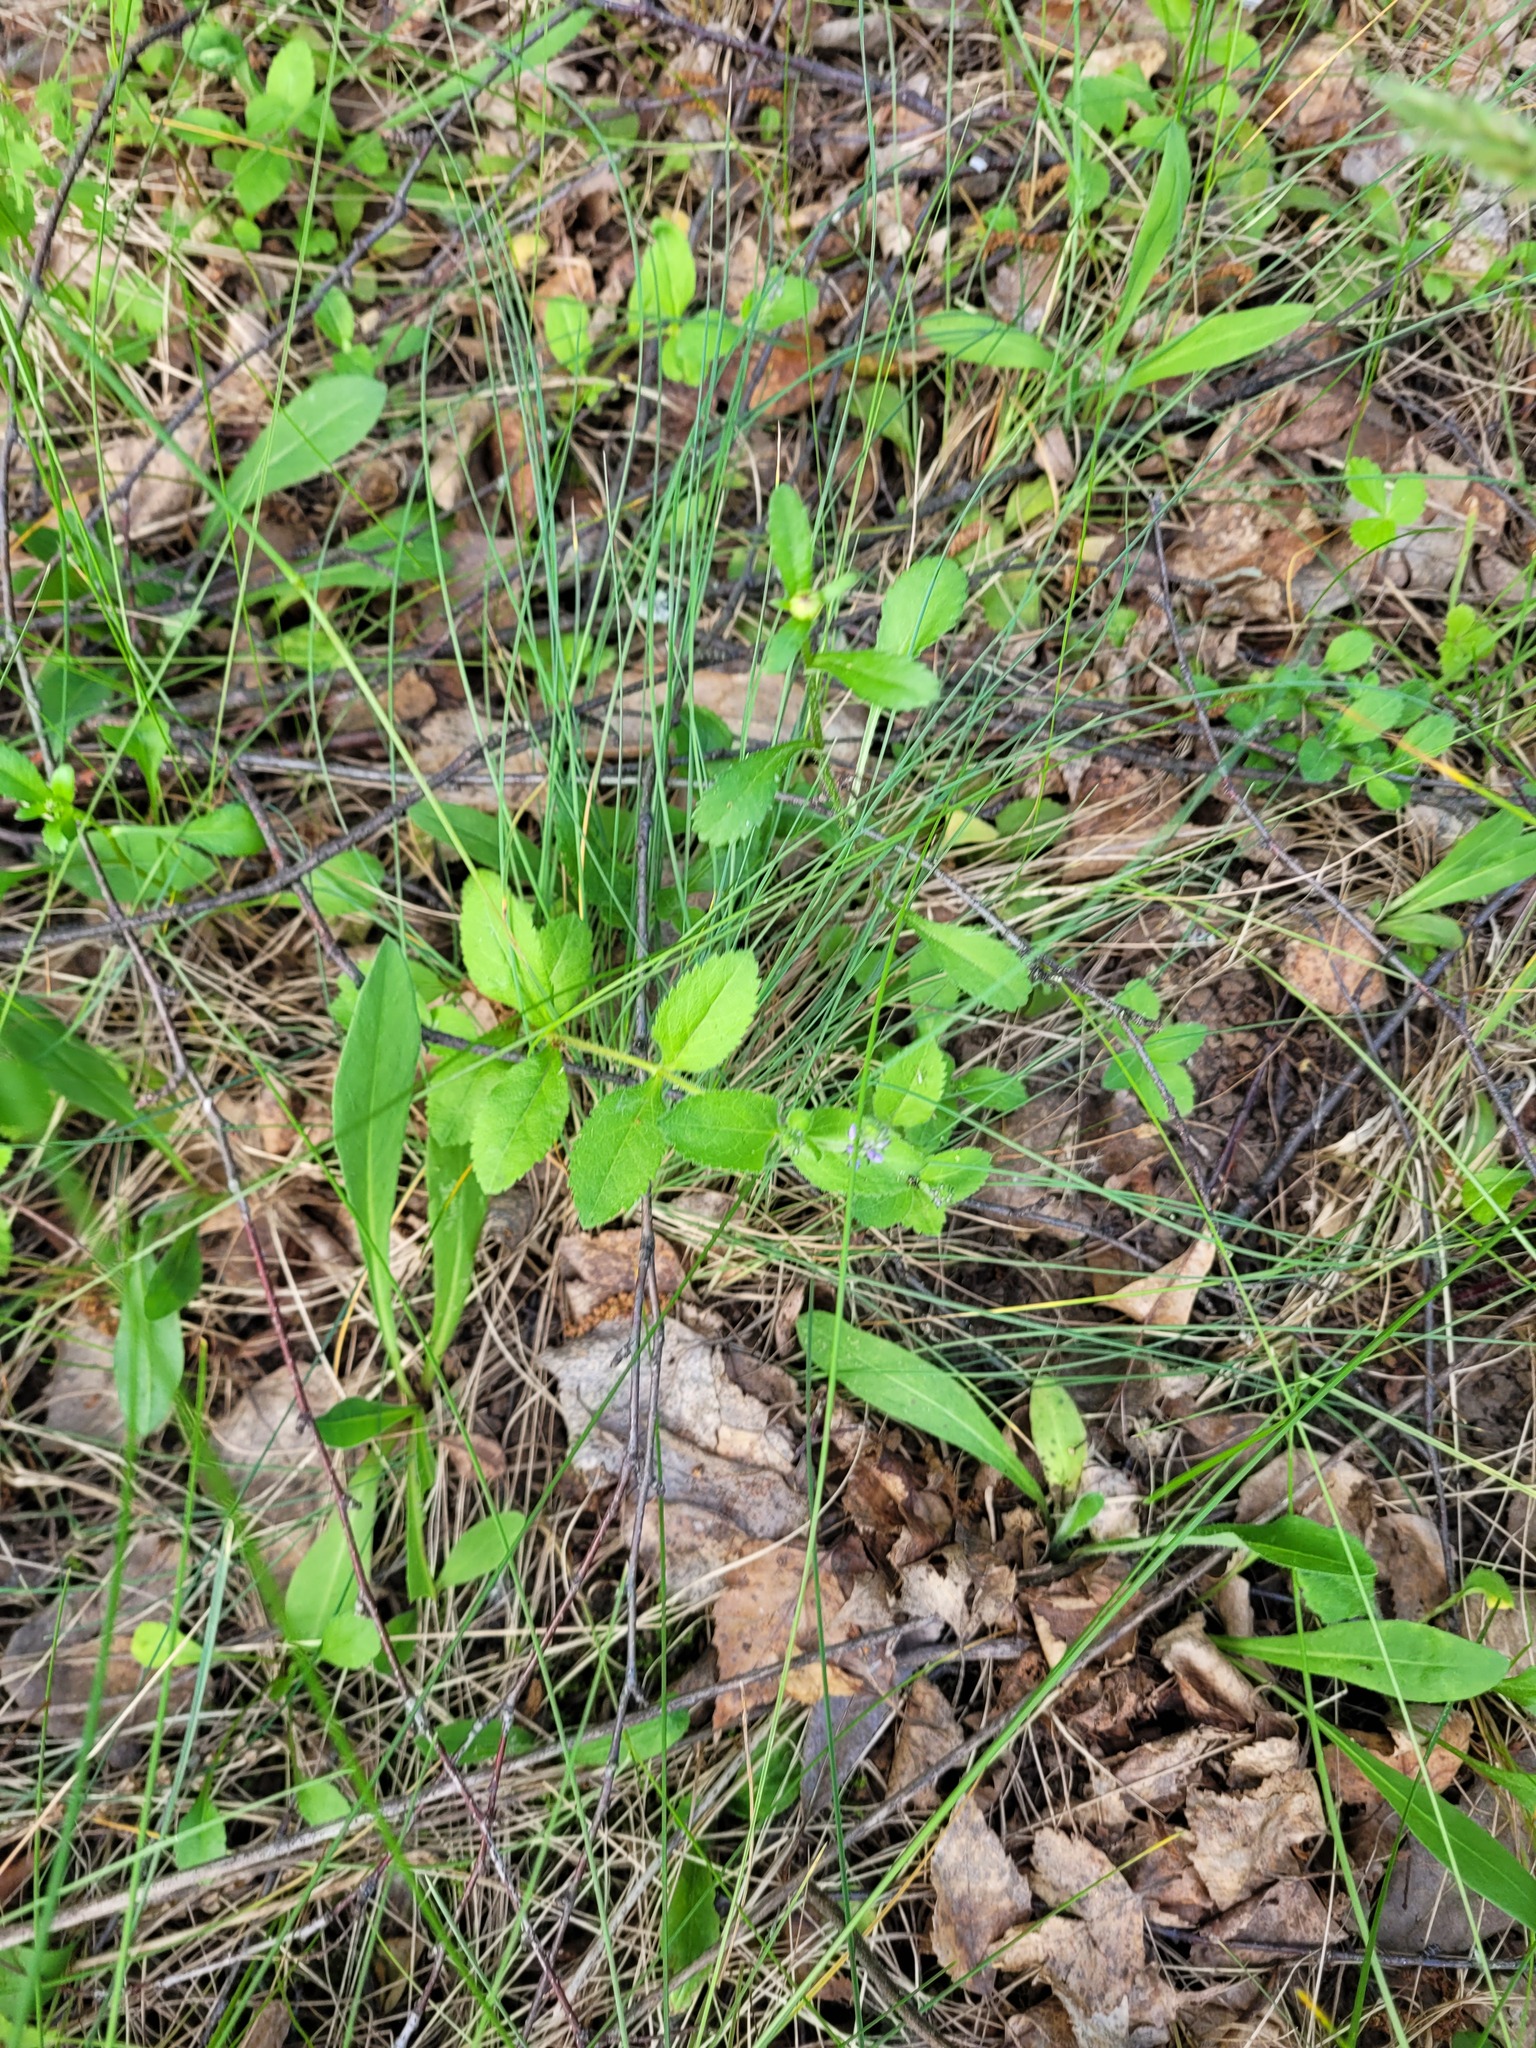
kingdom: Plantae
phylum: Tracheophyta
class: Magnoliopsida
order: Lamiales
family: Plantaginaceae
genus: Veronica
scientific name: Veronica officinalis
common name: Common speedwell
